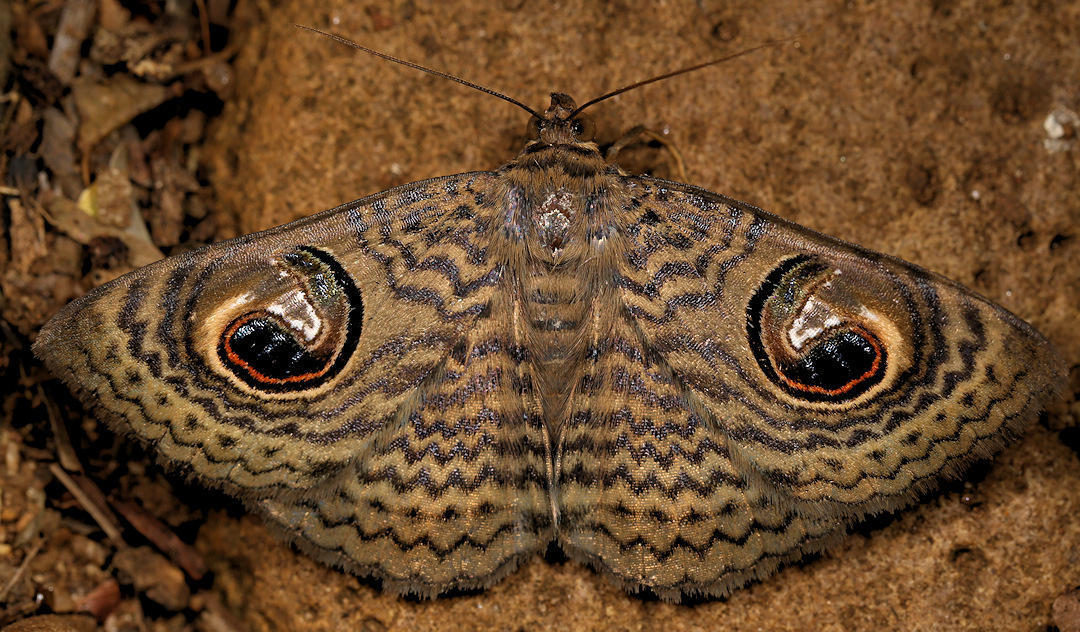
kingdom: Animalia
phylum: Arthropoda
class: Insecta
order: Lepidoptera
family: Erebidae
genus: Calliodes
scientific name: Calliodes pretiosissima
